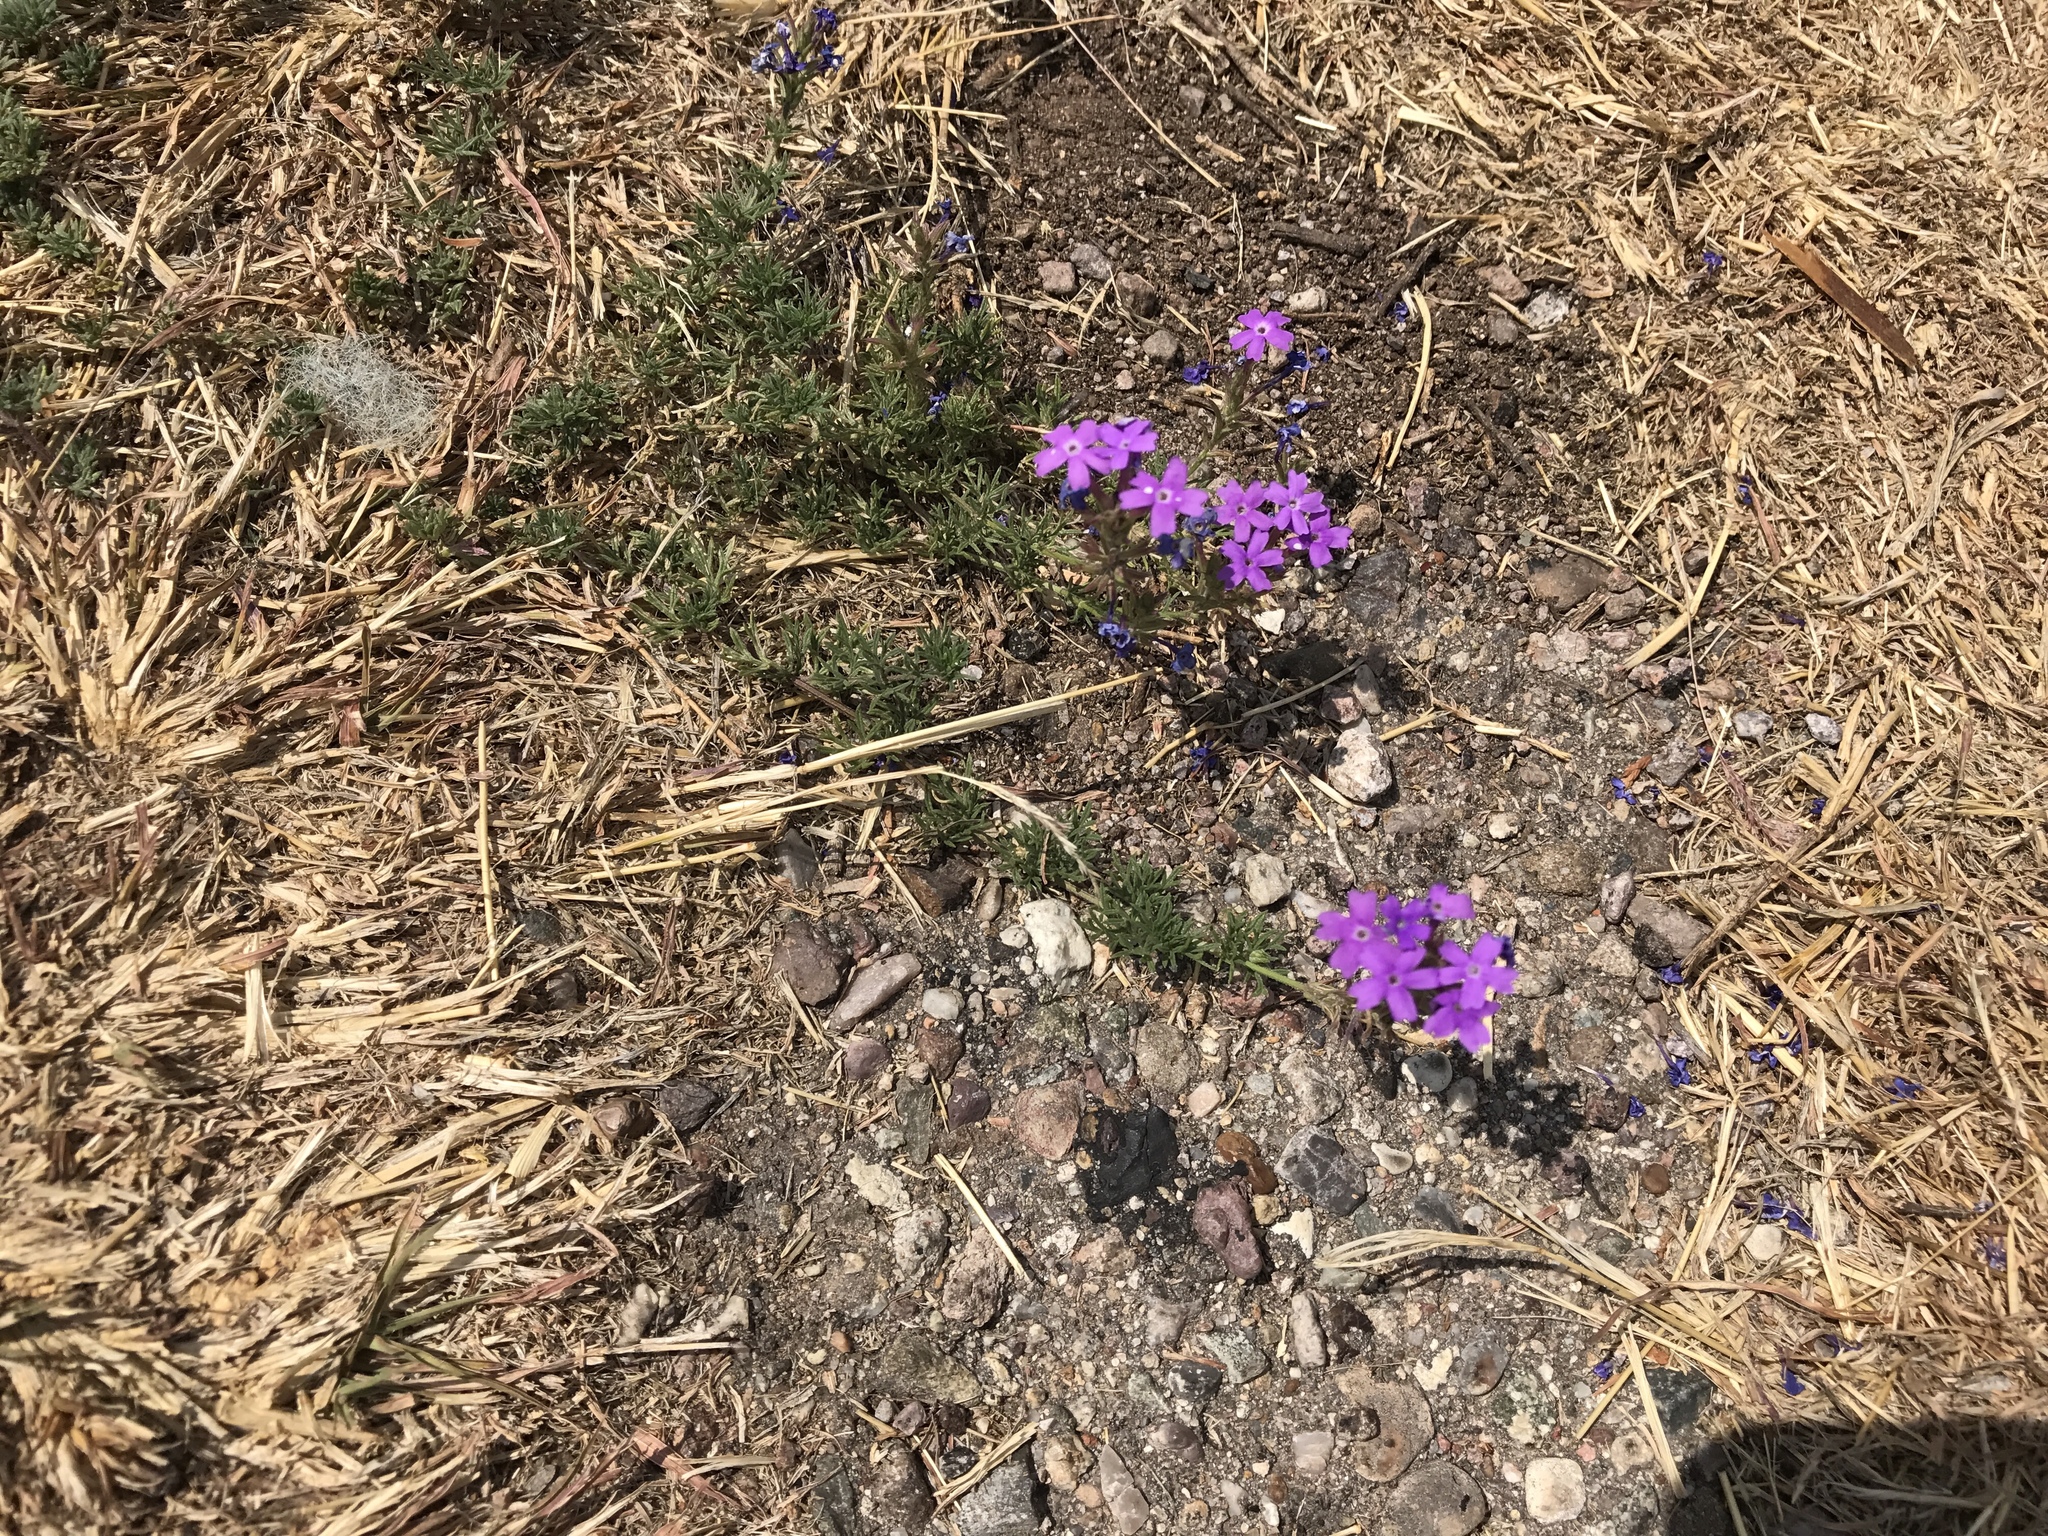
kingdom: Plantae
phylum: Tracheophyta
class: Magnoliopsida
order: Lamiales
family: Verbenaceae
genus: Verbena
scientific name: Verbena bipinnatifida
